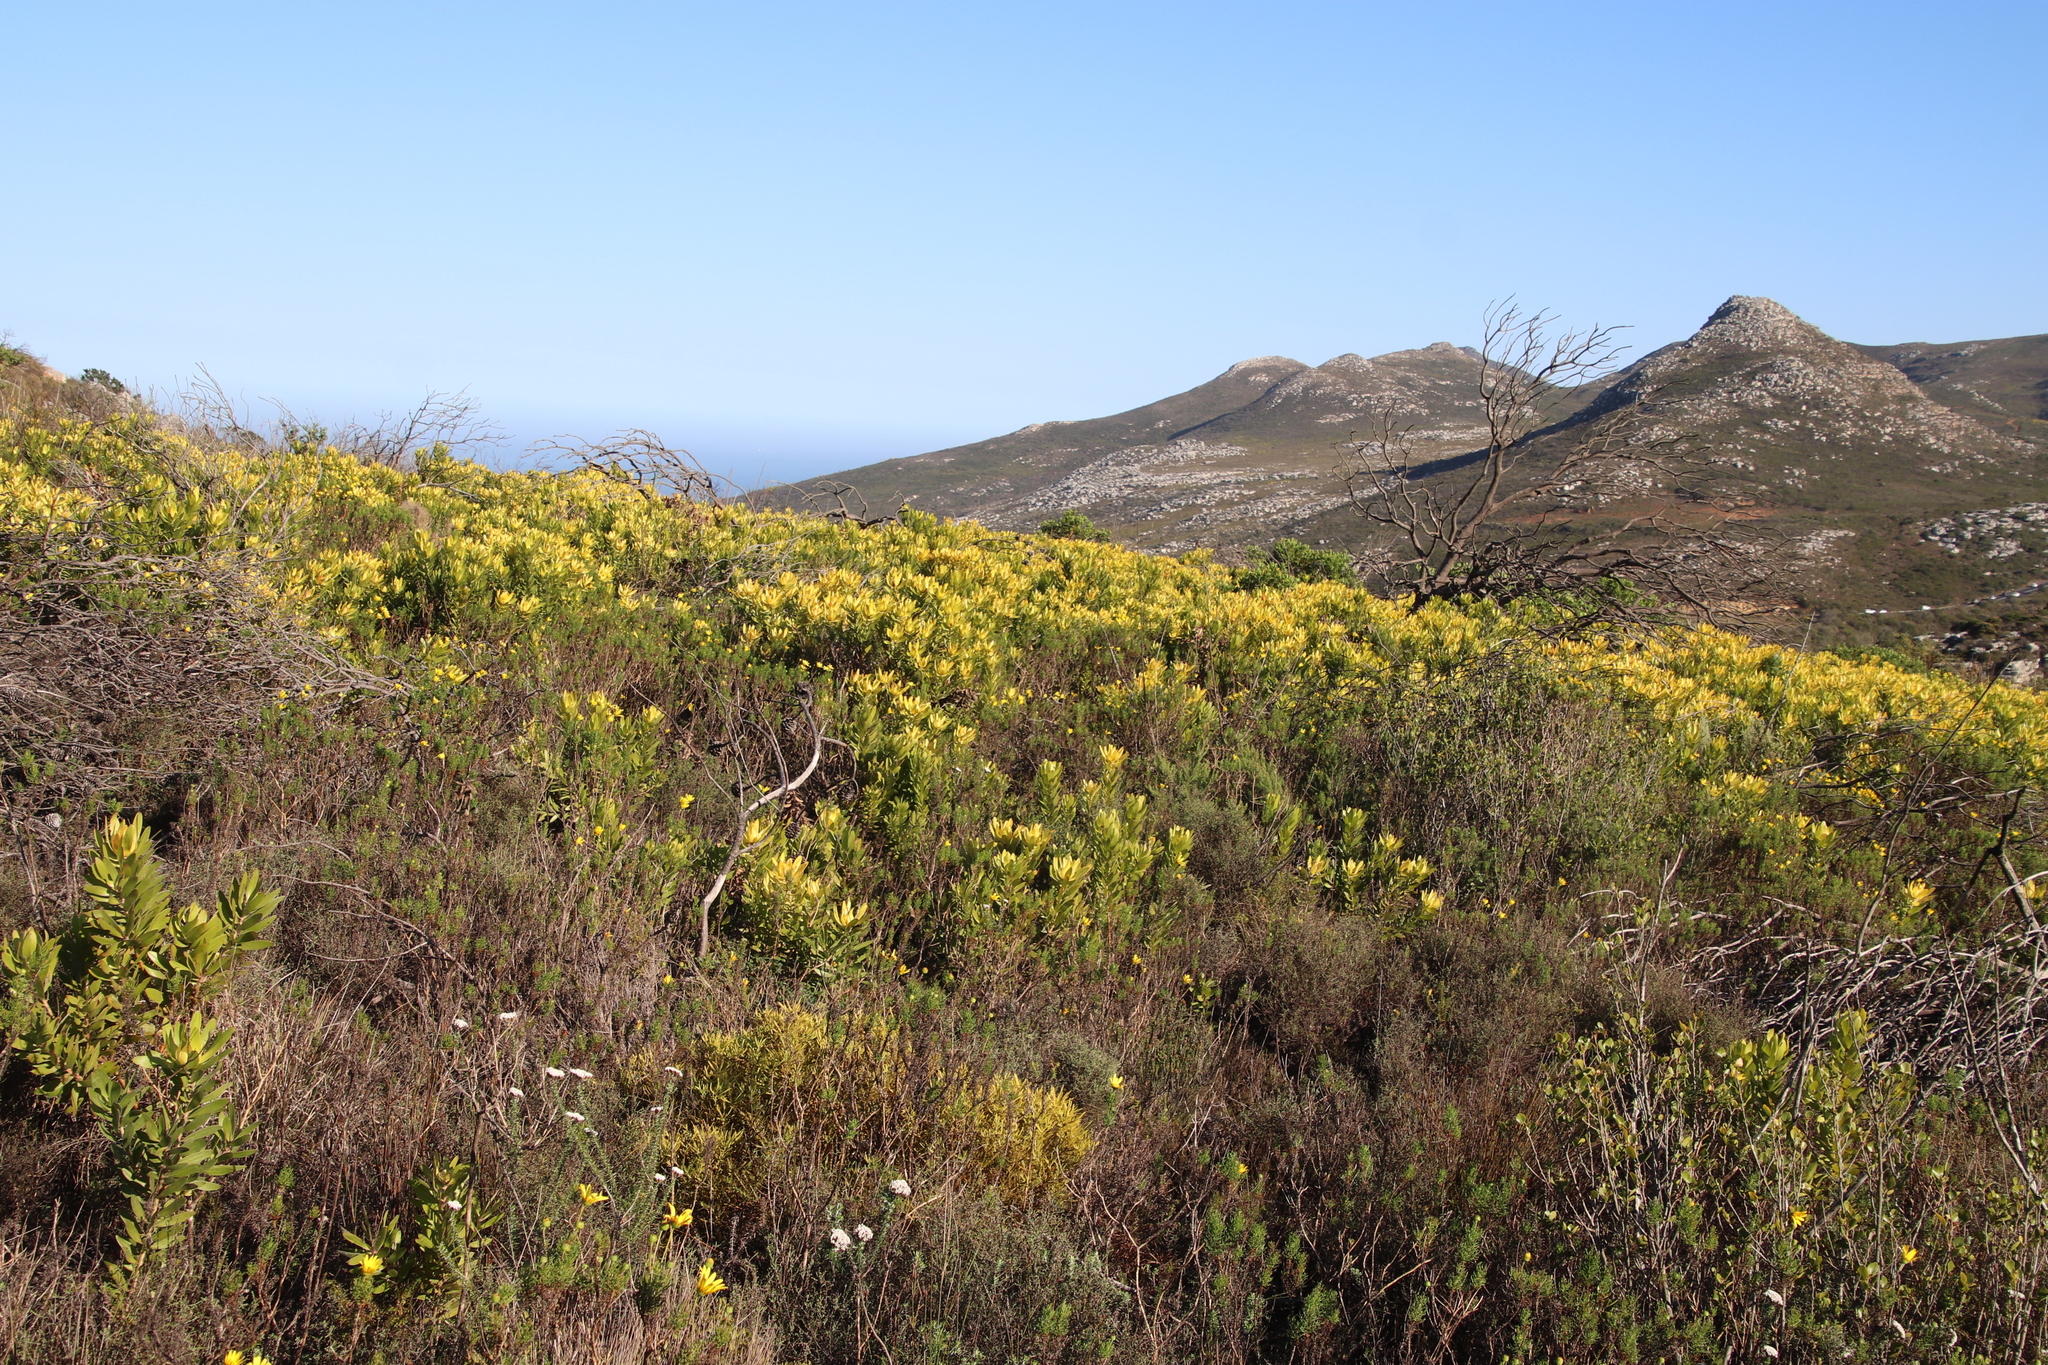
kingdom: Plantae
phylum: Tracheophyta
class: Magnoliopsida
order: Proteales
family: Proteaceae
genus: Leucadendron
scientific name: Leucadendron laureolum
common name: Golden sunshinebush
